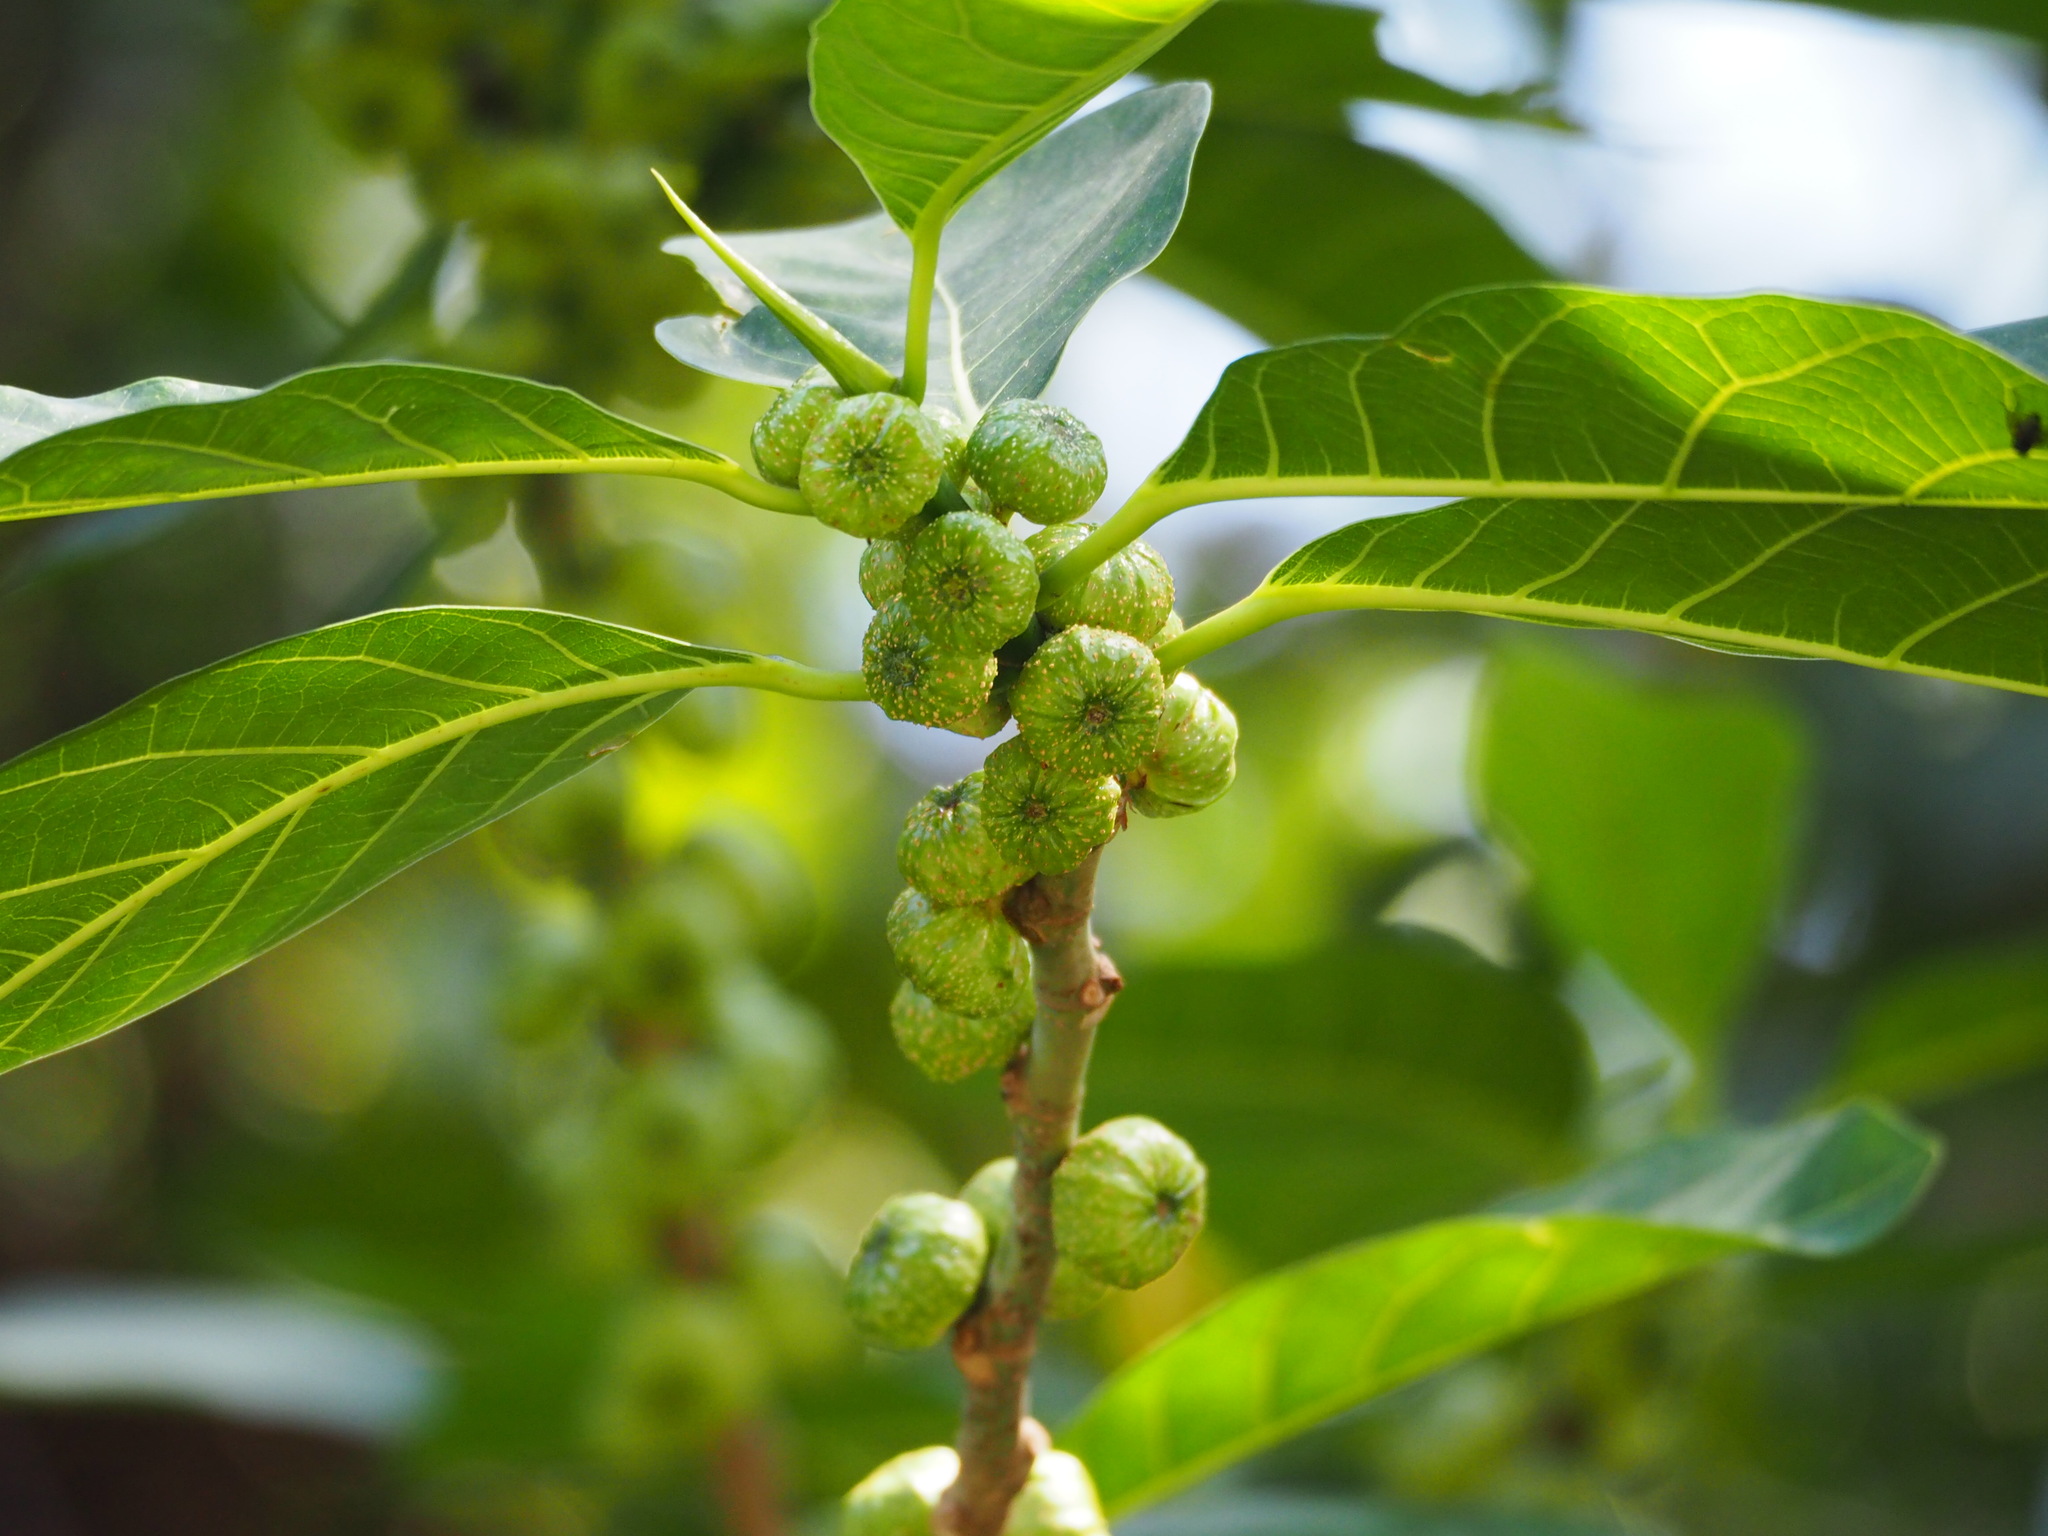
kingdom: Plantae
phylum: Tracheophyta
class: Magnoliopsida
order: Rosales
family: Moraceae
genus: Ficus
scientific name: Ficus septica
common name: Septic fig
